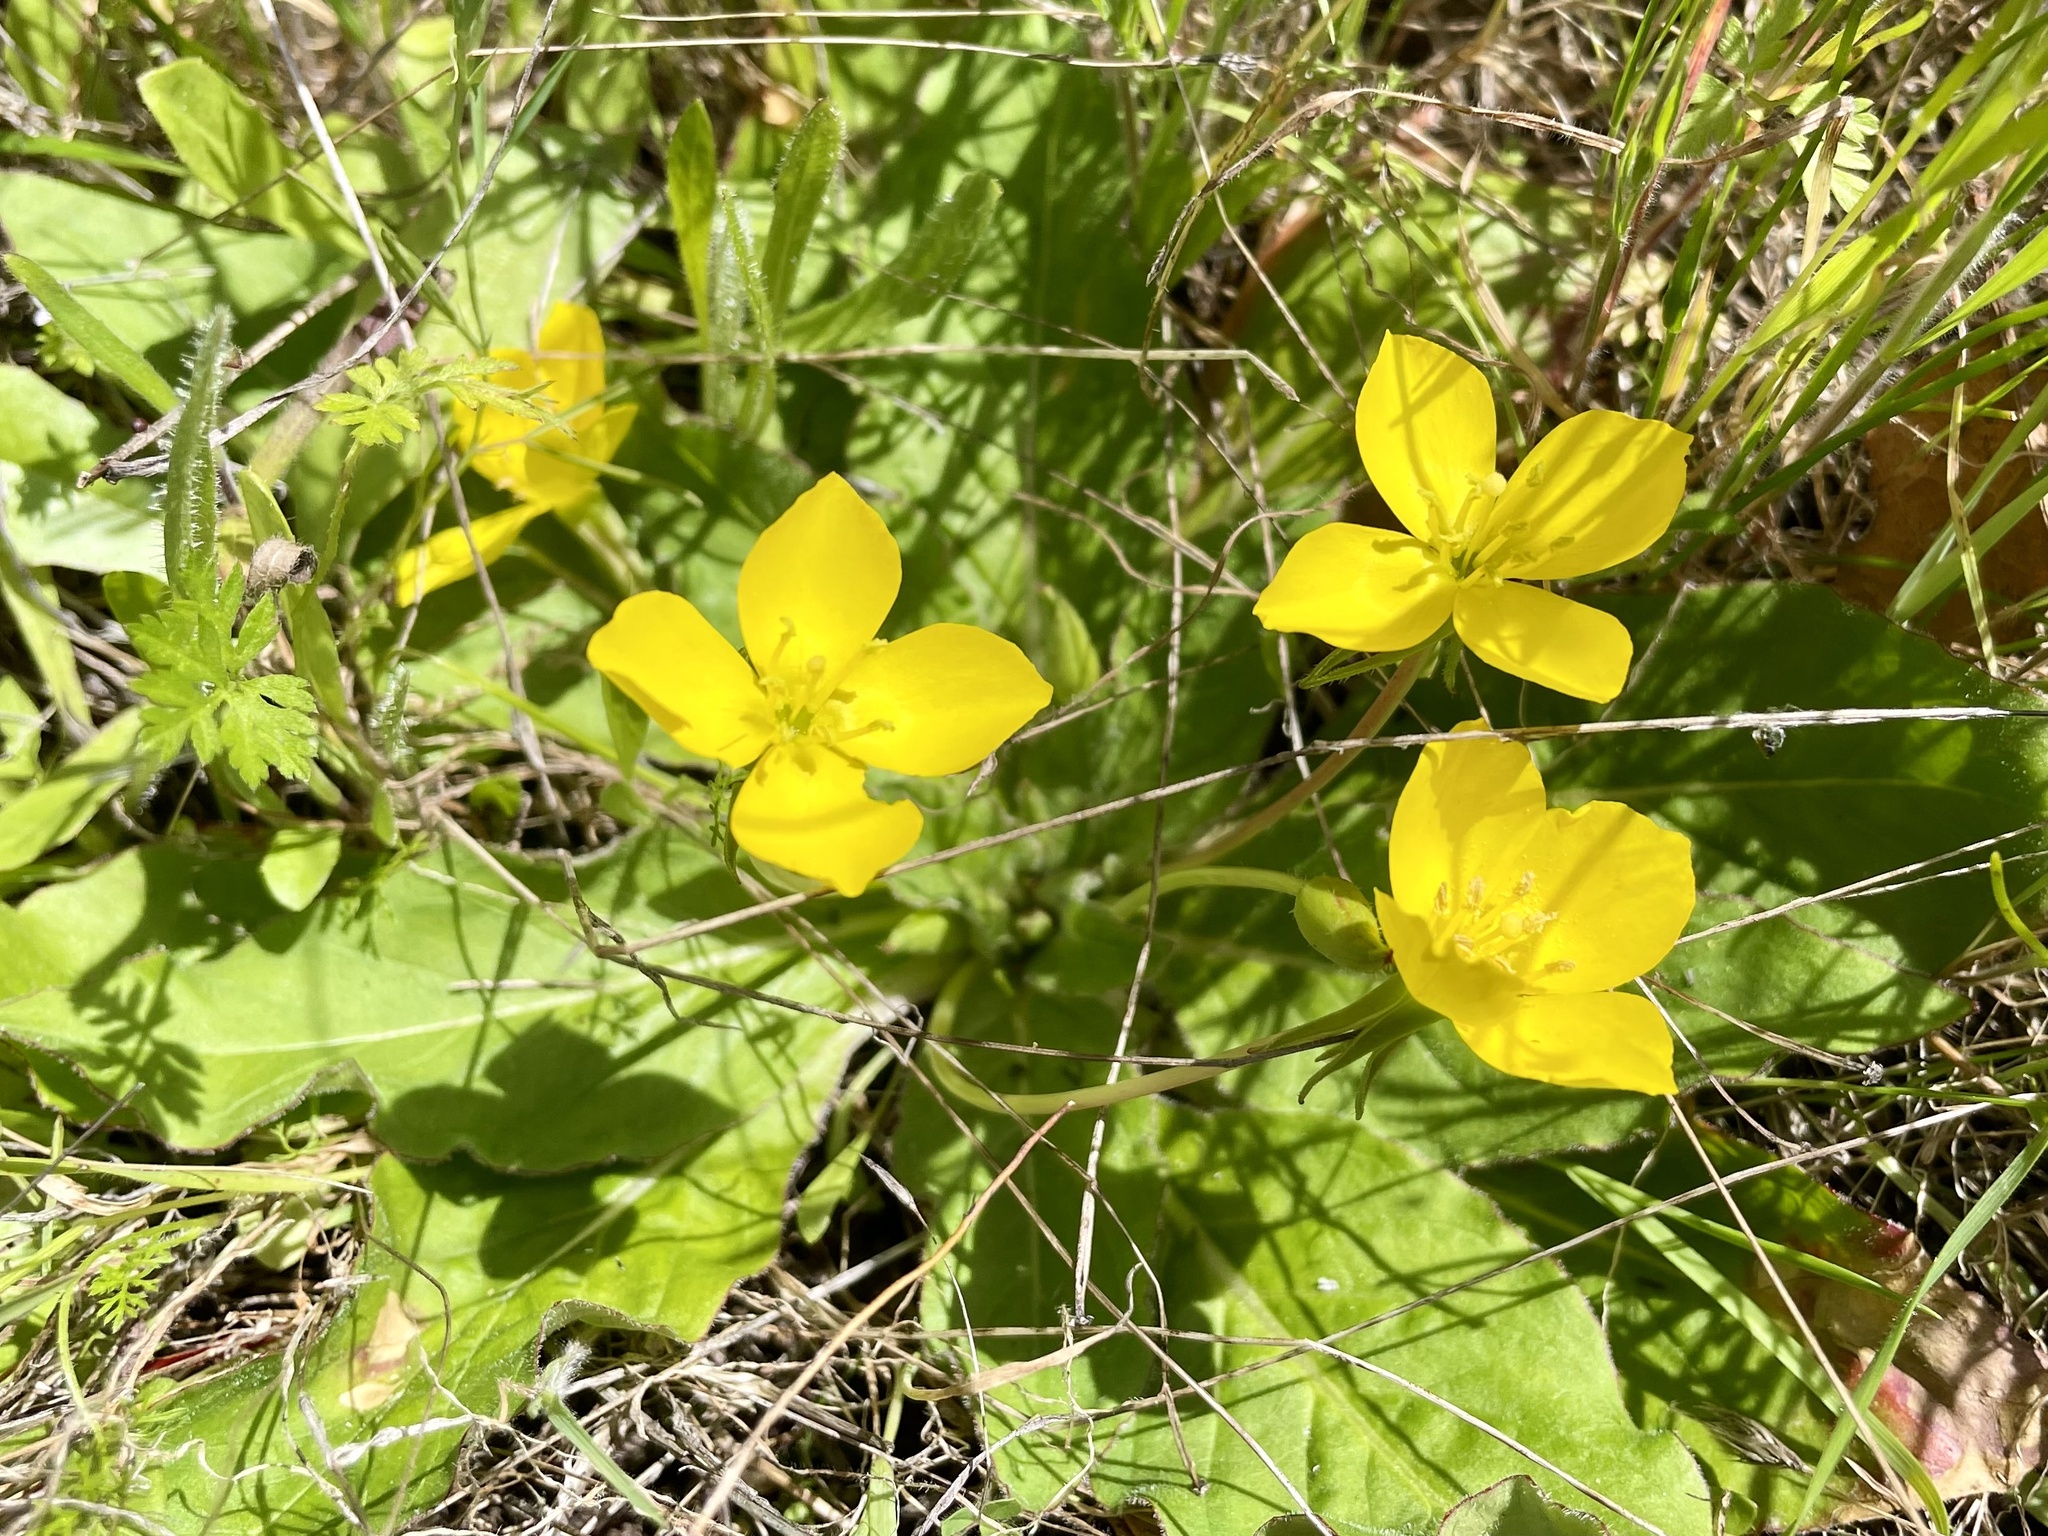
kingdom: Plantae
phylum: Tracheophyta
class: Magnoliopsida
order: Myrtales
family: Onagraceae
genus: Taraxia
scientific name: Taraxia ovata
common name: Goldeneggs
